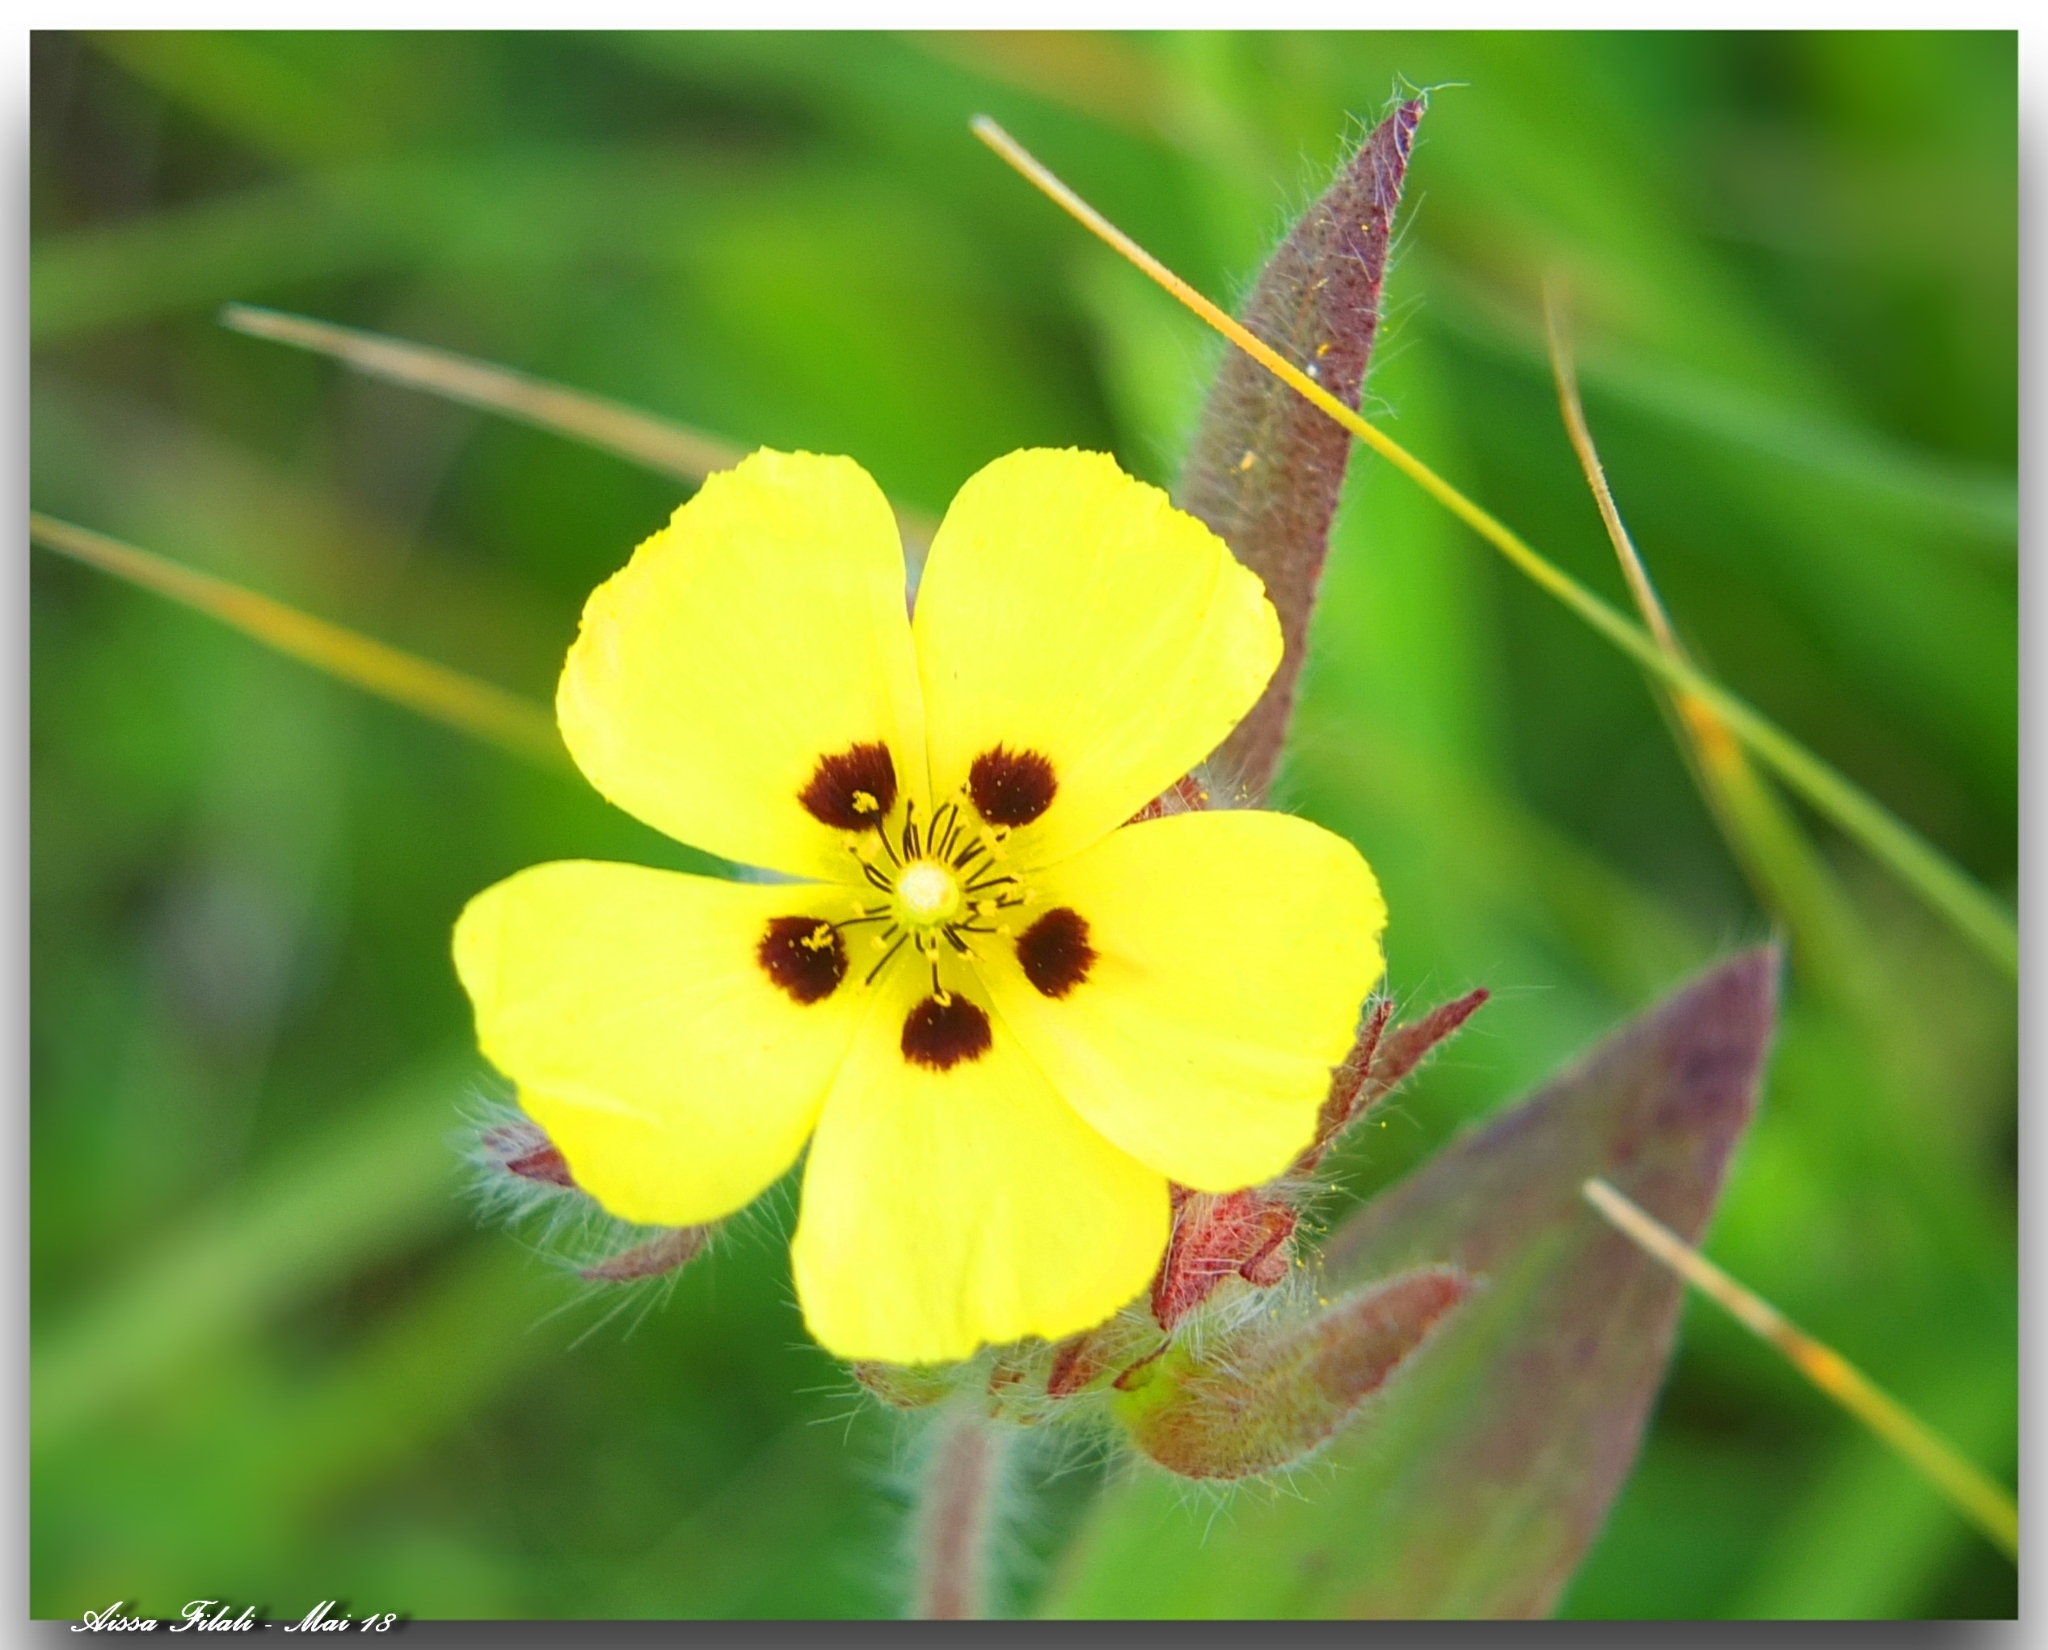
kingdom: Plantae
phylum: Tracheophyta
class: Magnoliopsida
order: Malvales
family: Cistaceae
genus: Tuberaria
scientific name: Tuberaria guttata
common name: Spotted rock-rose
